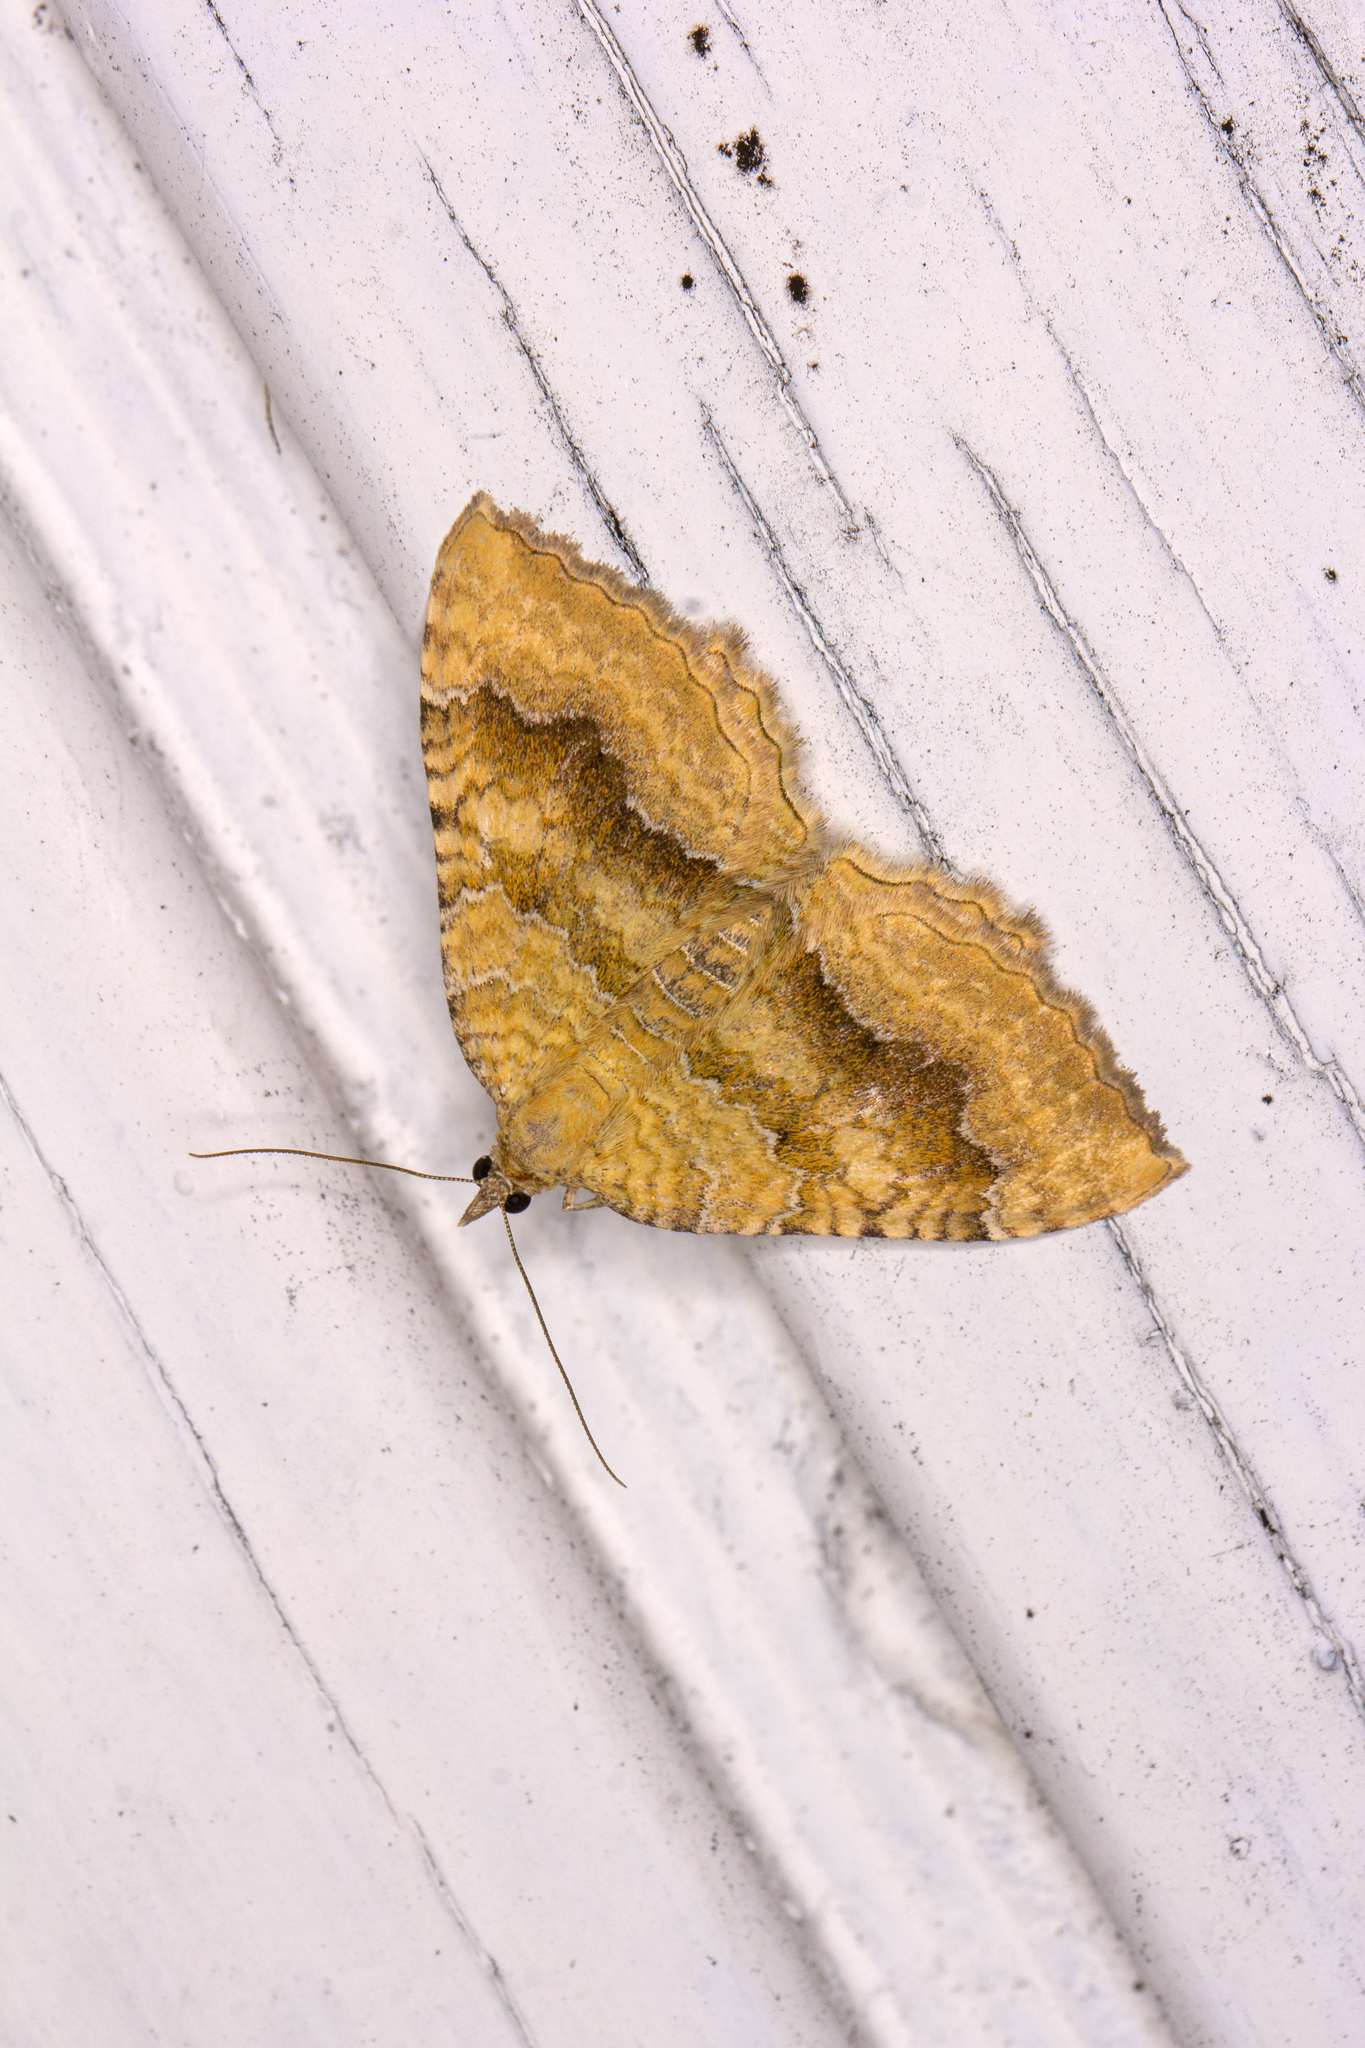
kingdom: Animalia
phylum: Arthropoda
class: Insecta
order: Lepidoptera
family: Geometridae
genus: Camptogramma
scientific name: Camptogramma bilineata
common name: Yellow shell
